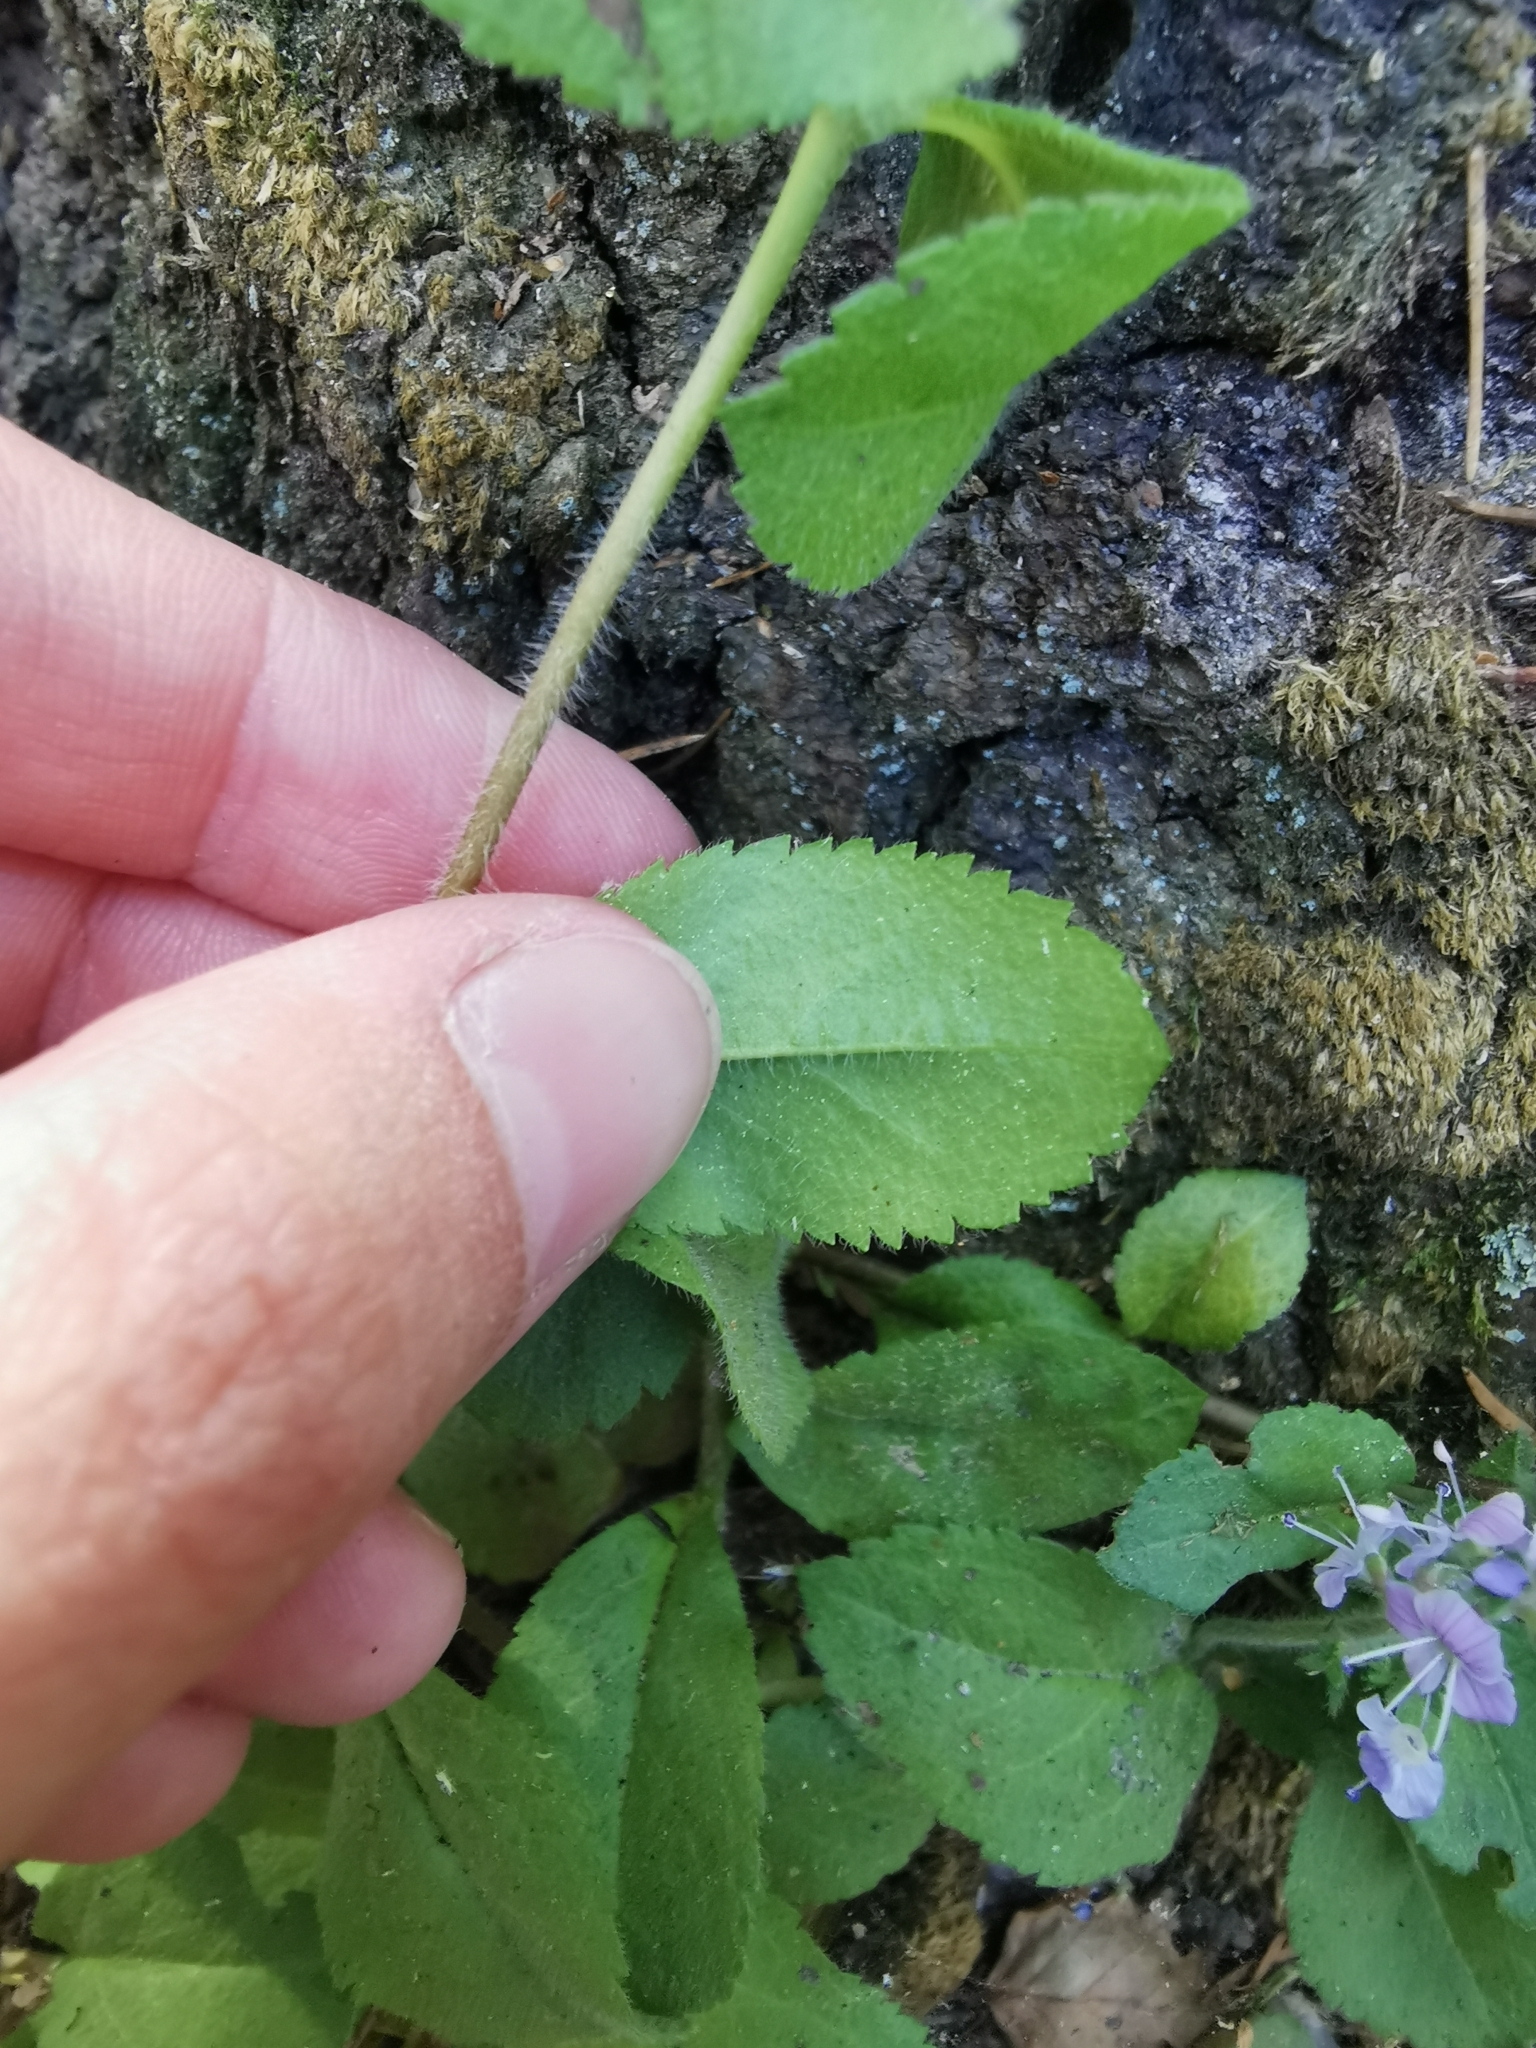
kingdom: Plantae
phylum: Tracheophyta
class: Magnoliopsida
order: Lamiales
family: Plantaginaceae
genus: Veronica
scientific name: Veronica officinalis
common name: Common speedwell
